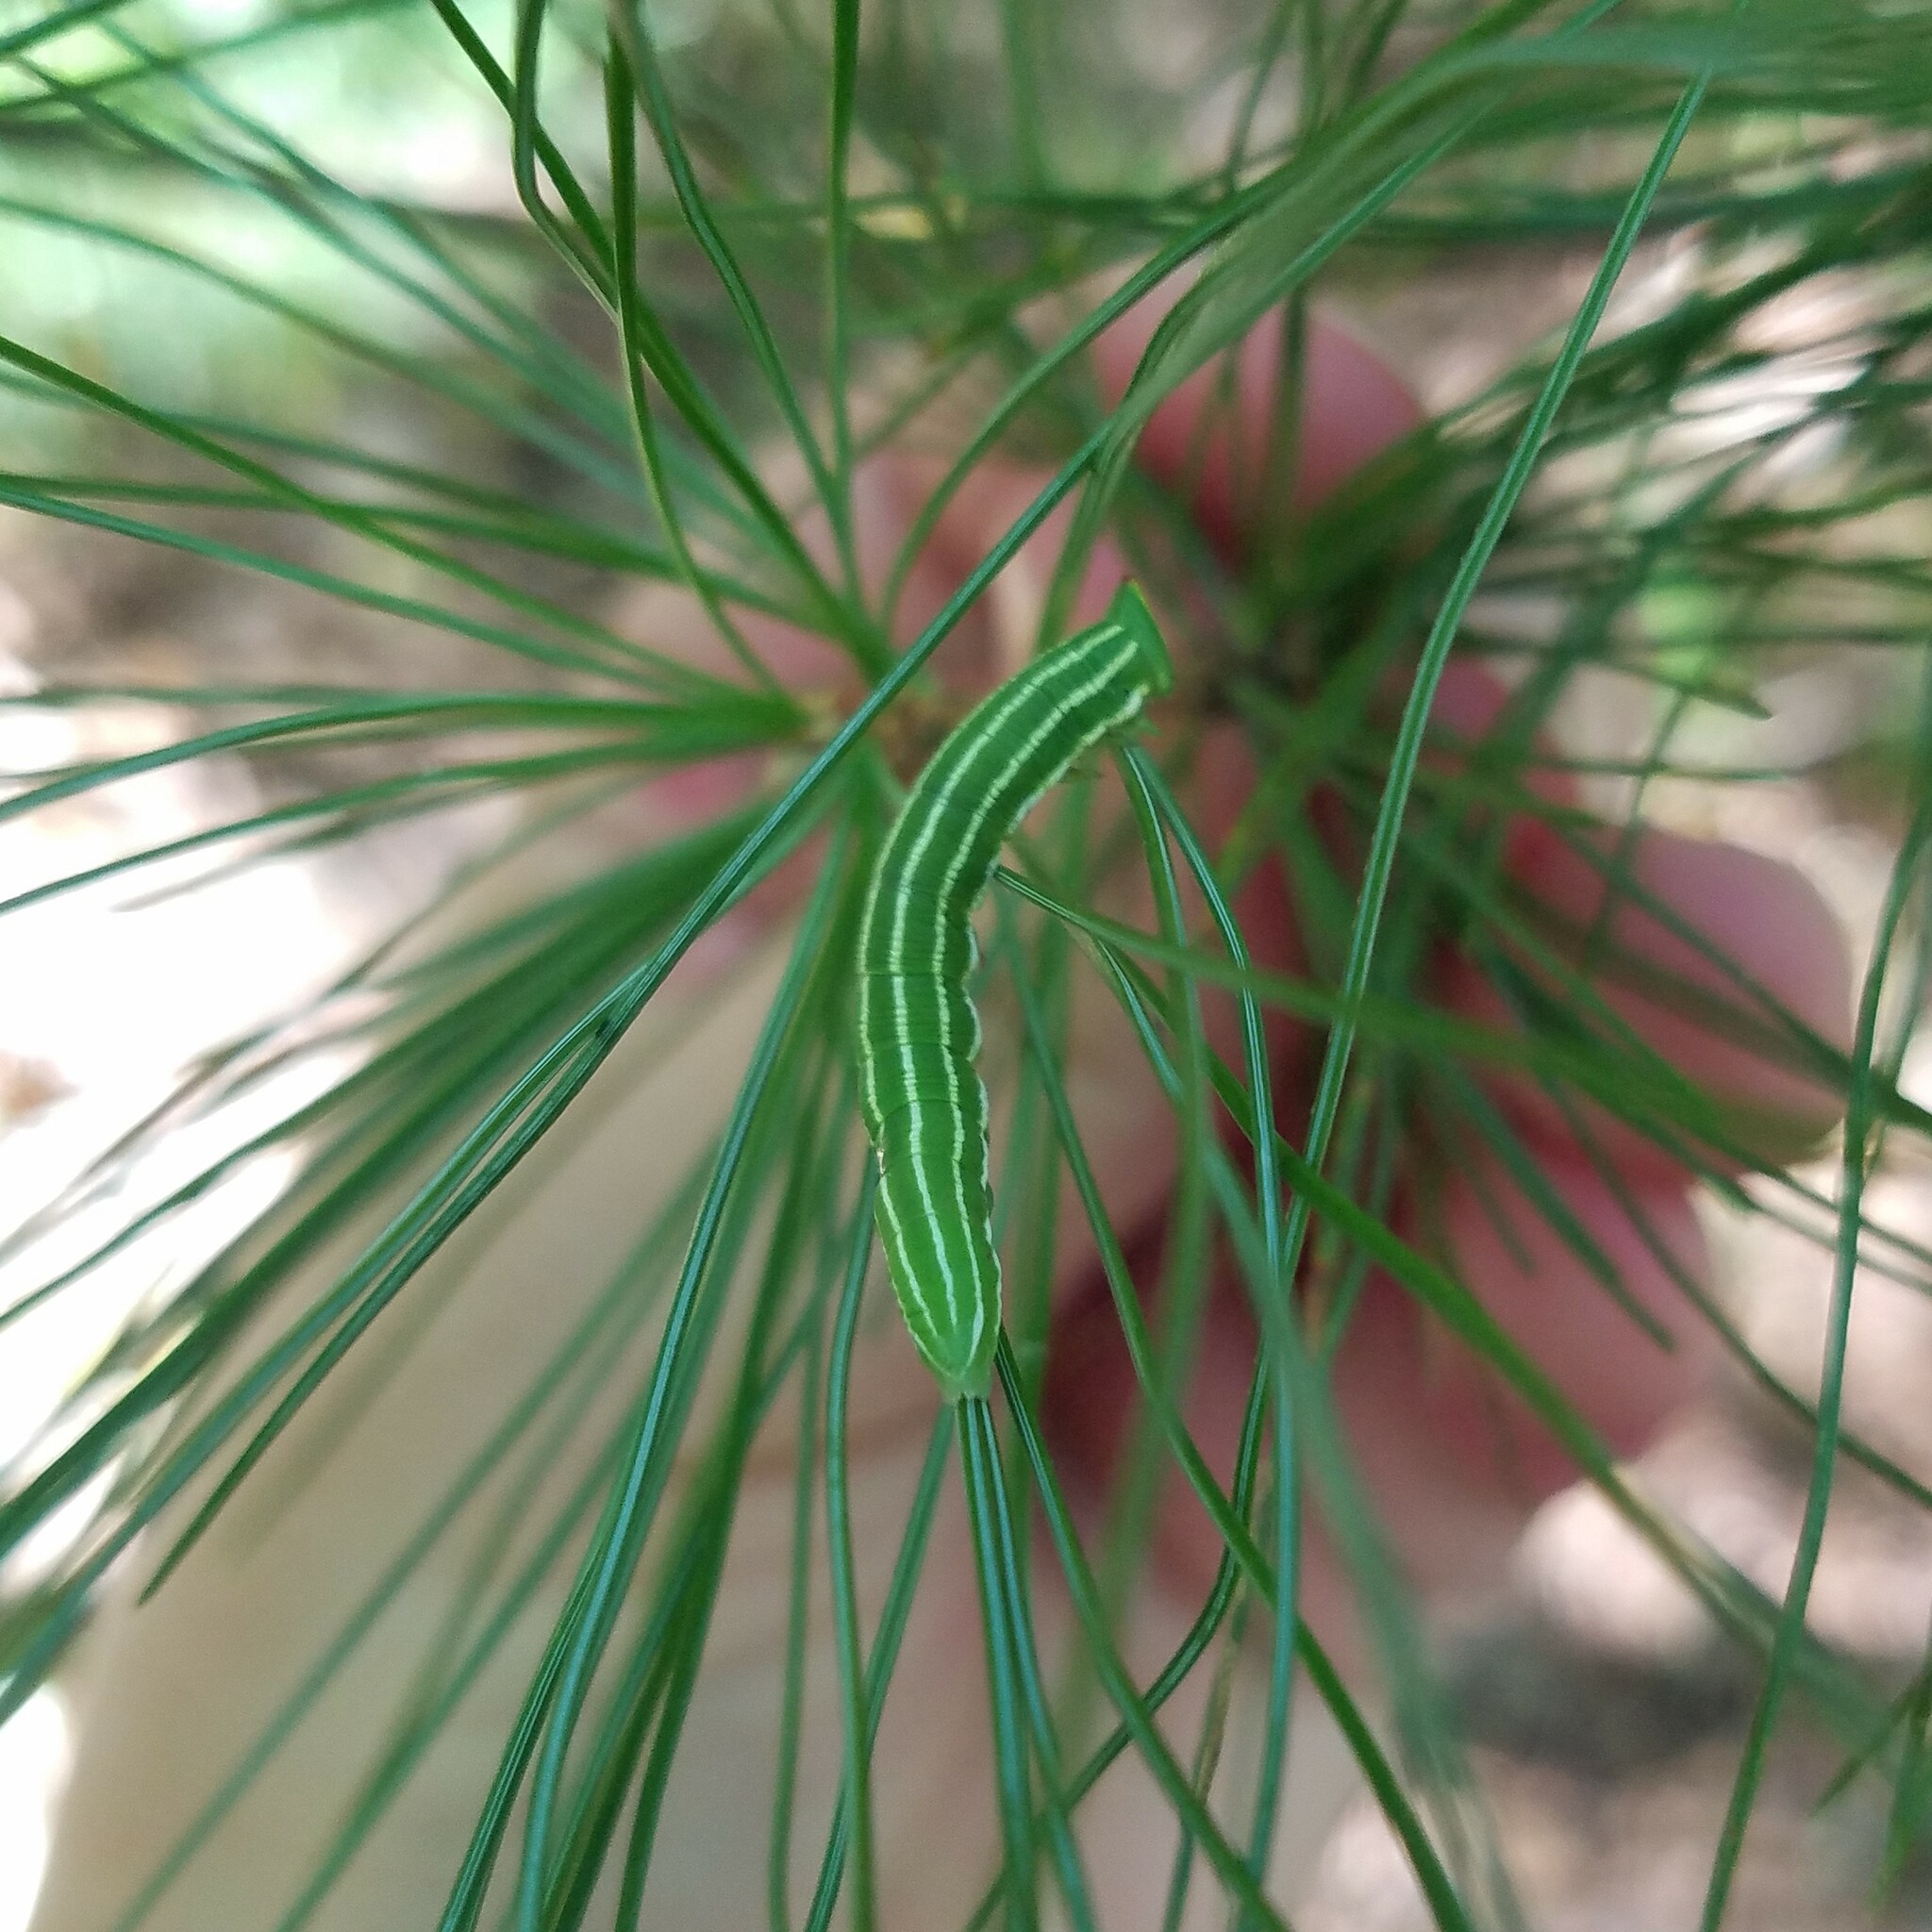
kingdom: Animalia
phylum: Arthropoda
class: Insecta
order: Lepidoptera
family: Sphingidae
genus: Lapara
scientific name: Lapara coniferarum
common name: Southern pine sphinx
